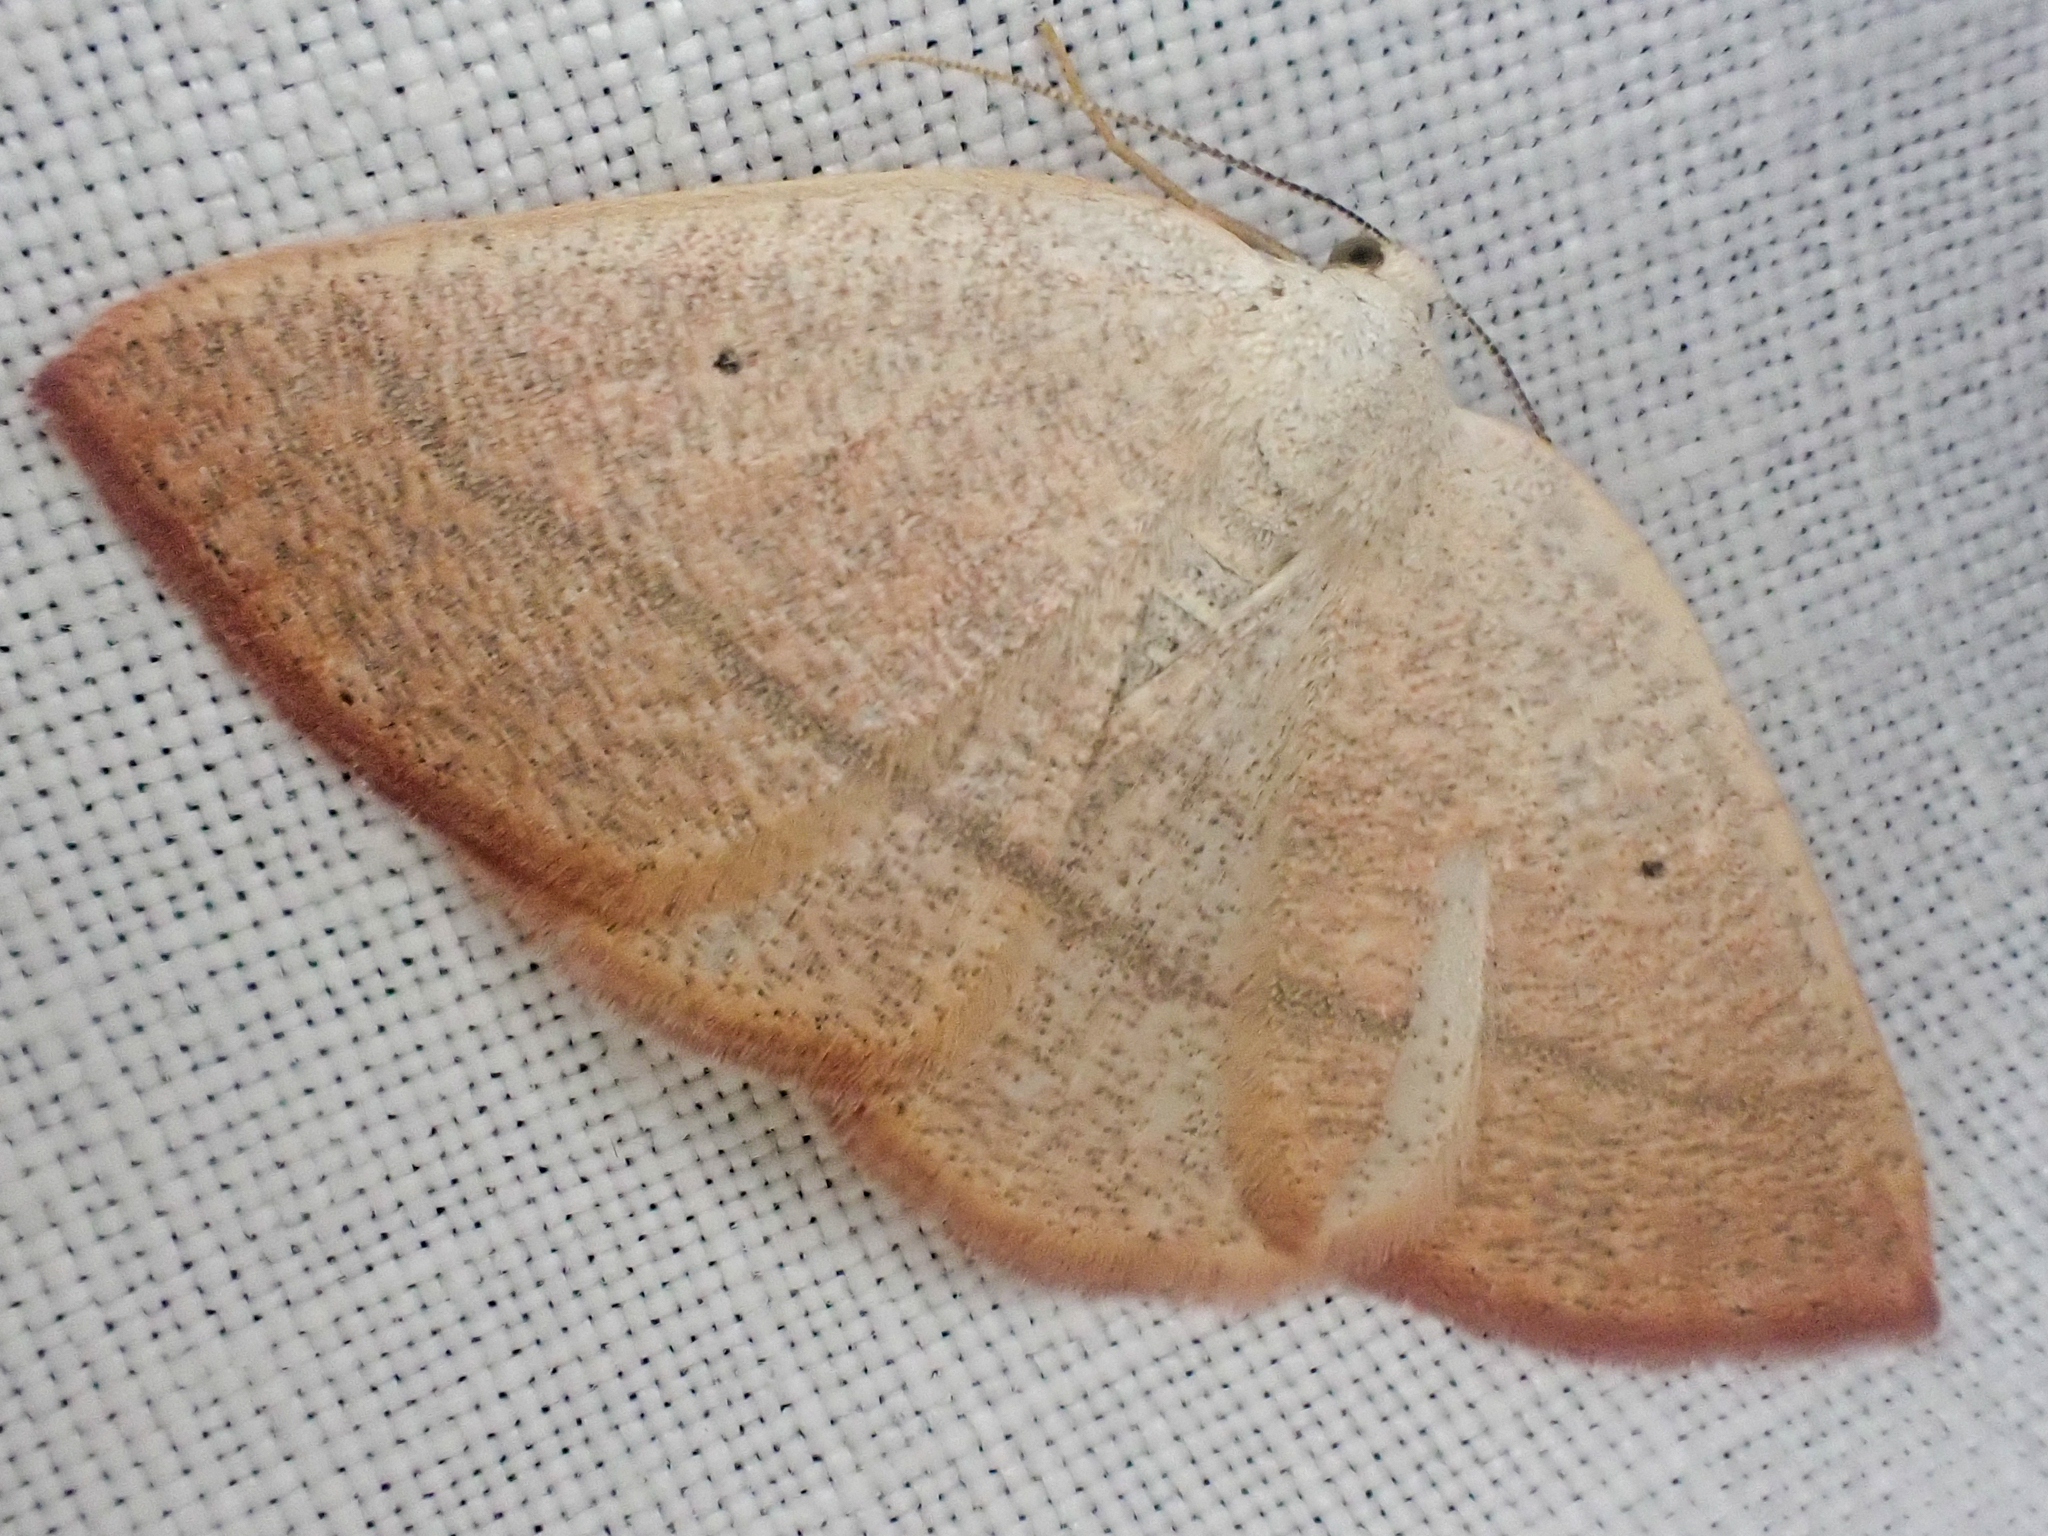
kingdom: Animalia
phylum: Arthropoda
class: Insecta
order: Lepidoptera
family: Geometridae
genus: Eudrepanulatrix
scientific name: Eudrepanulatrix rectifascia
